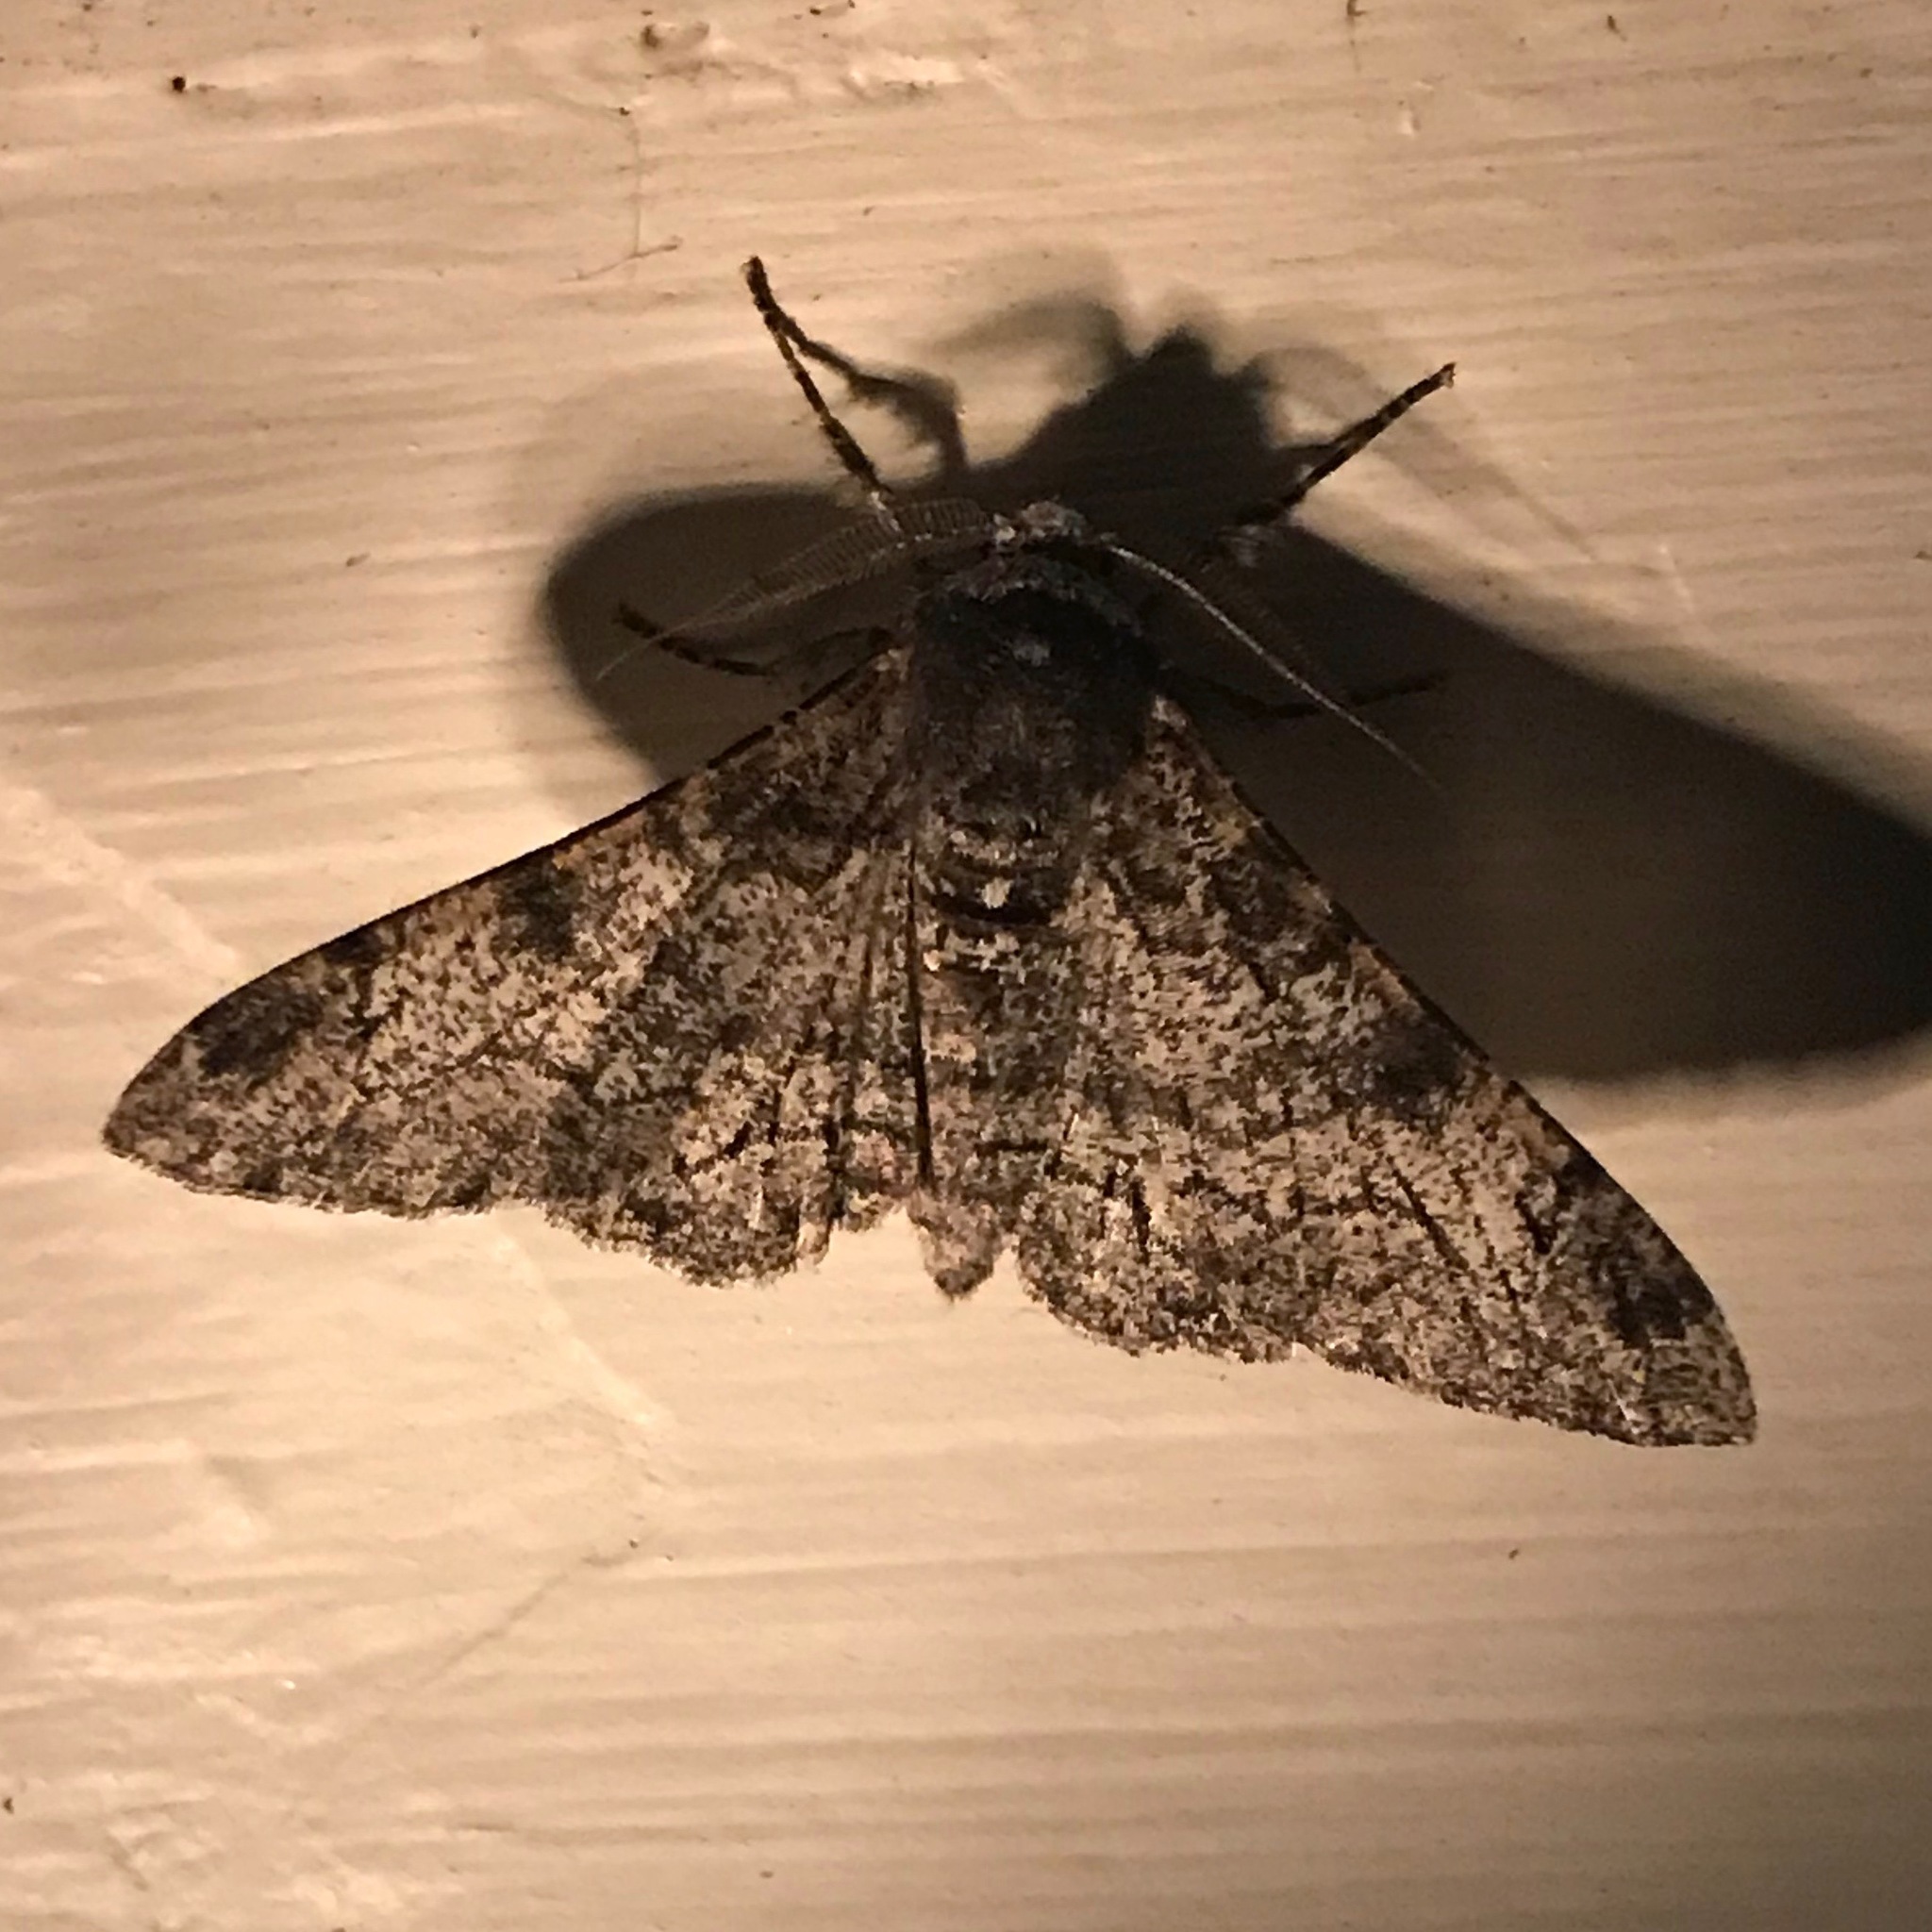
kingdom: Animalia
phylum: Arthropoda
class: Insecta
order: Lepidoptera
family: Geometridae
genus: Biston
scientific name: Biston betularia
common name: Peppered moth
